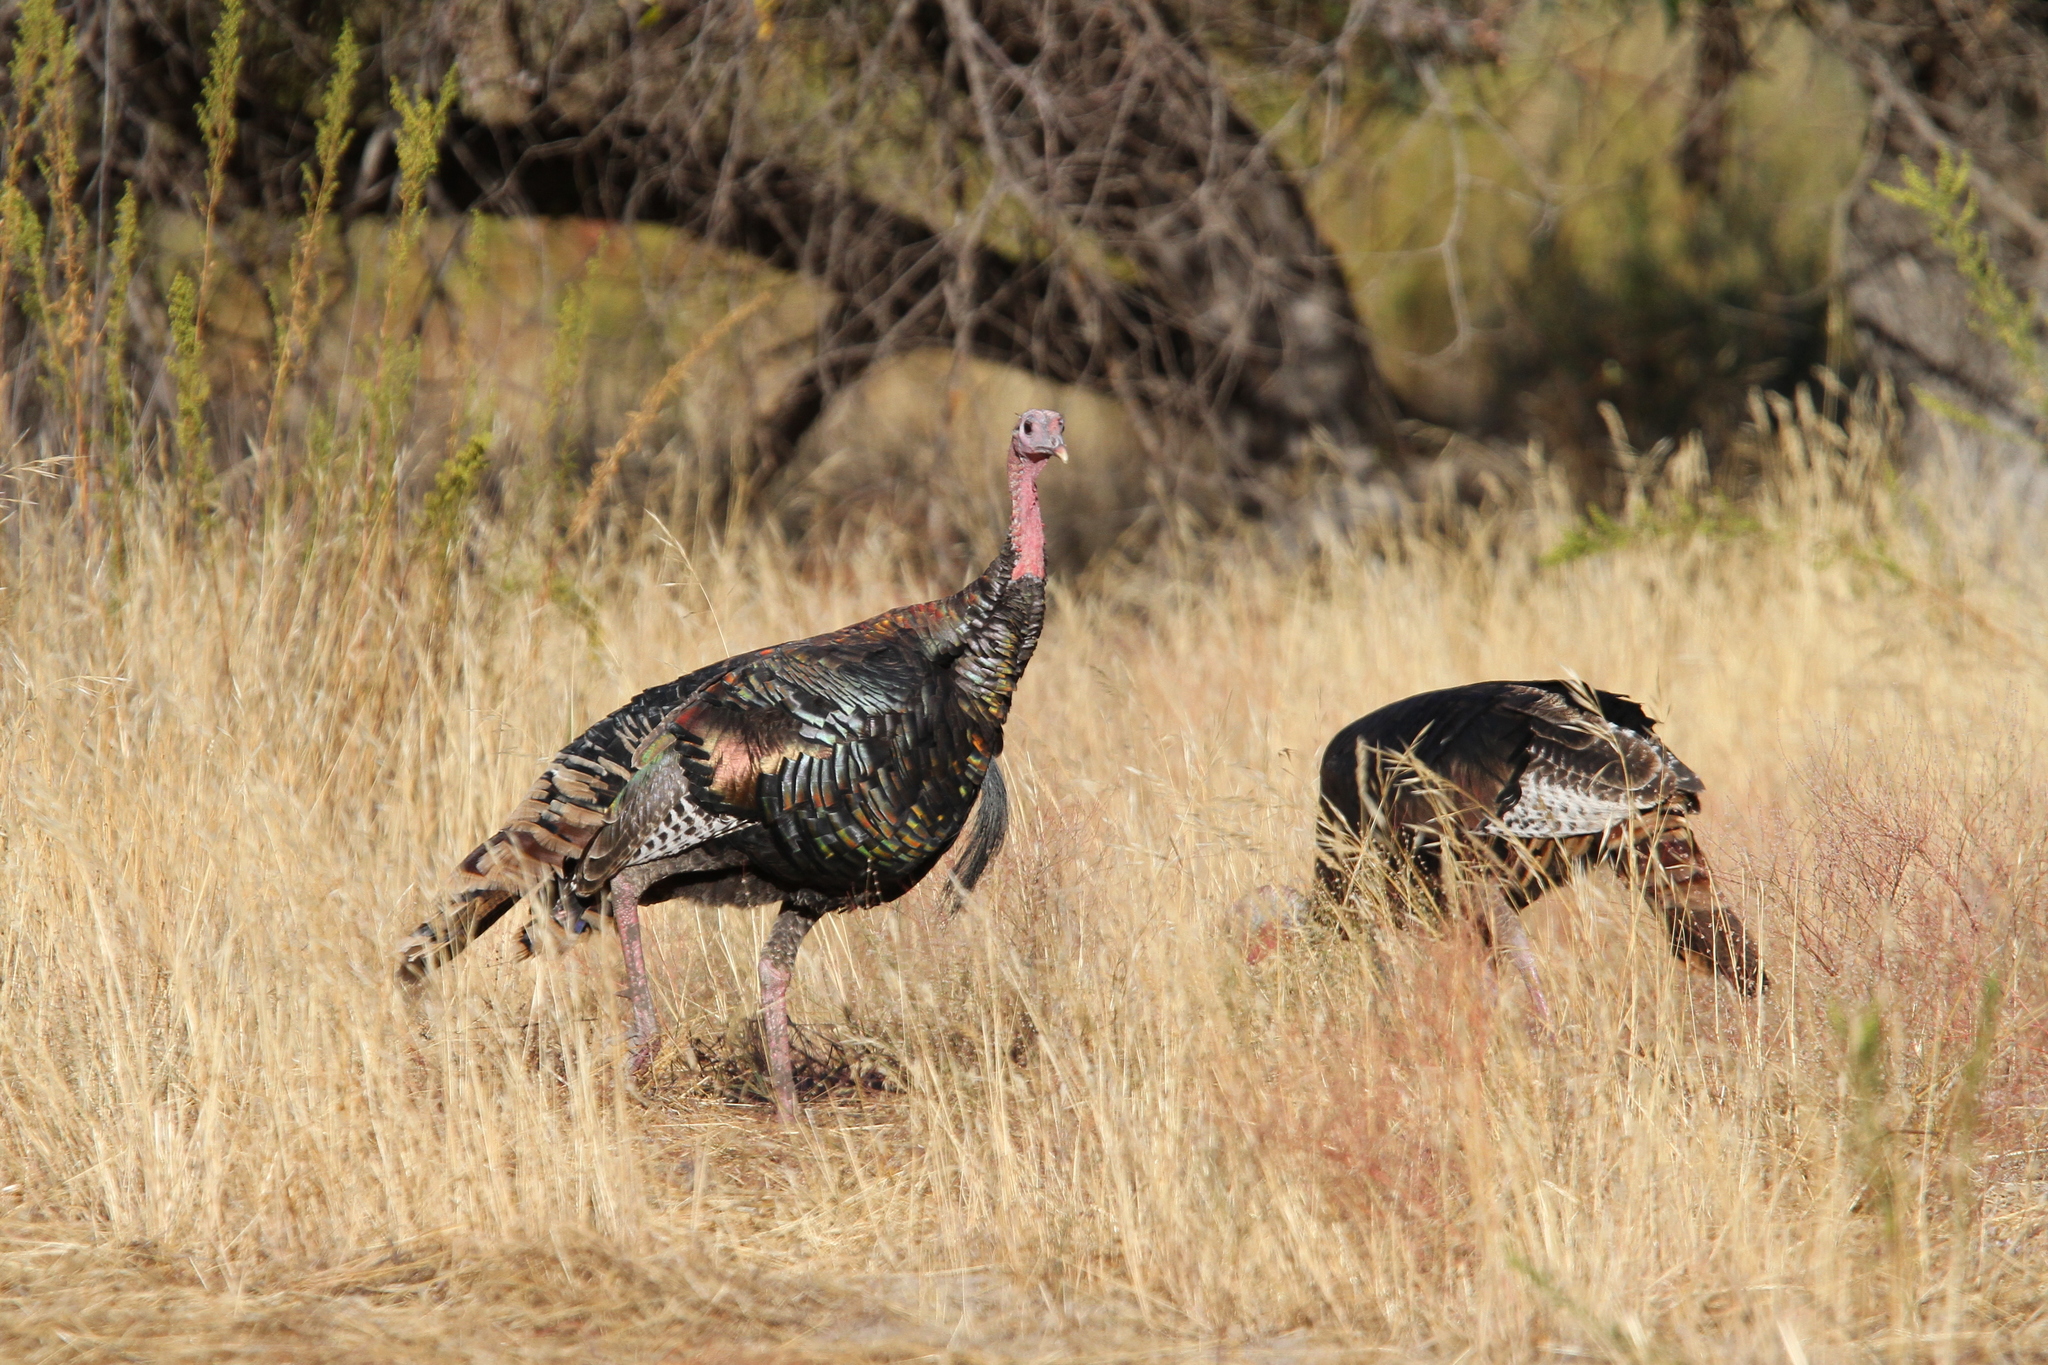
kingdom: Animalia
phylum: Chordata
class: Aves
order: Galliformes
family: Phasianidae
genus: Meleagris
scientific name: Meleagris gallopavo
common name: Wild turkey
